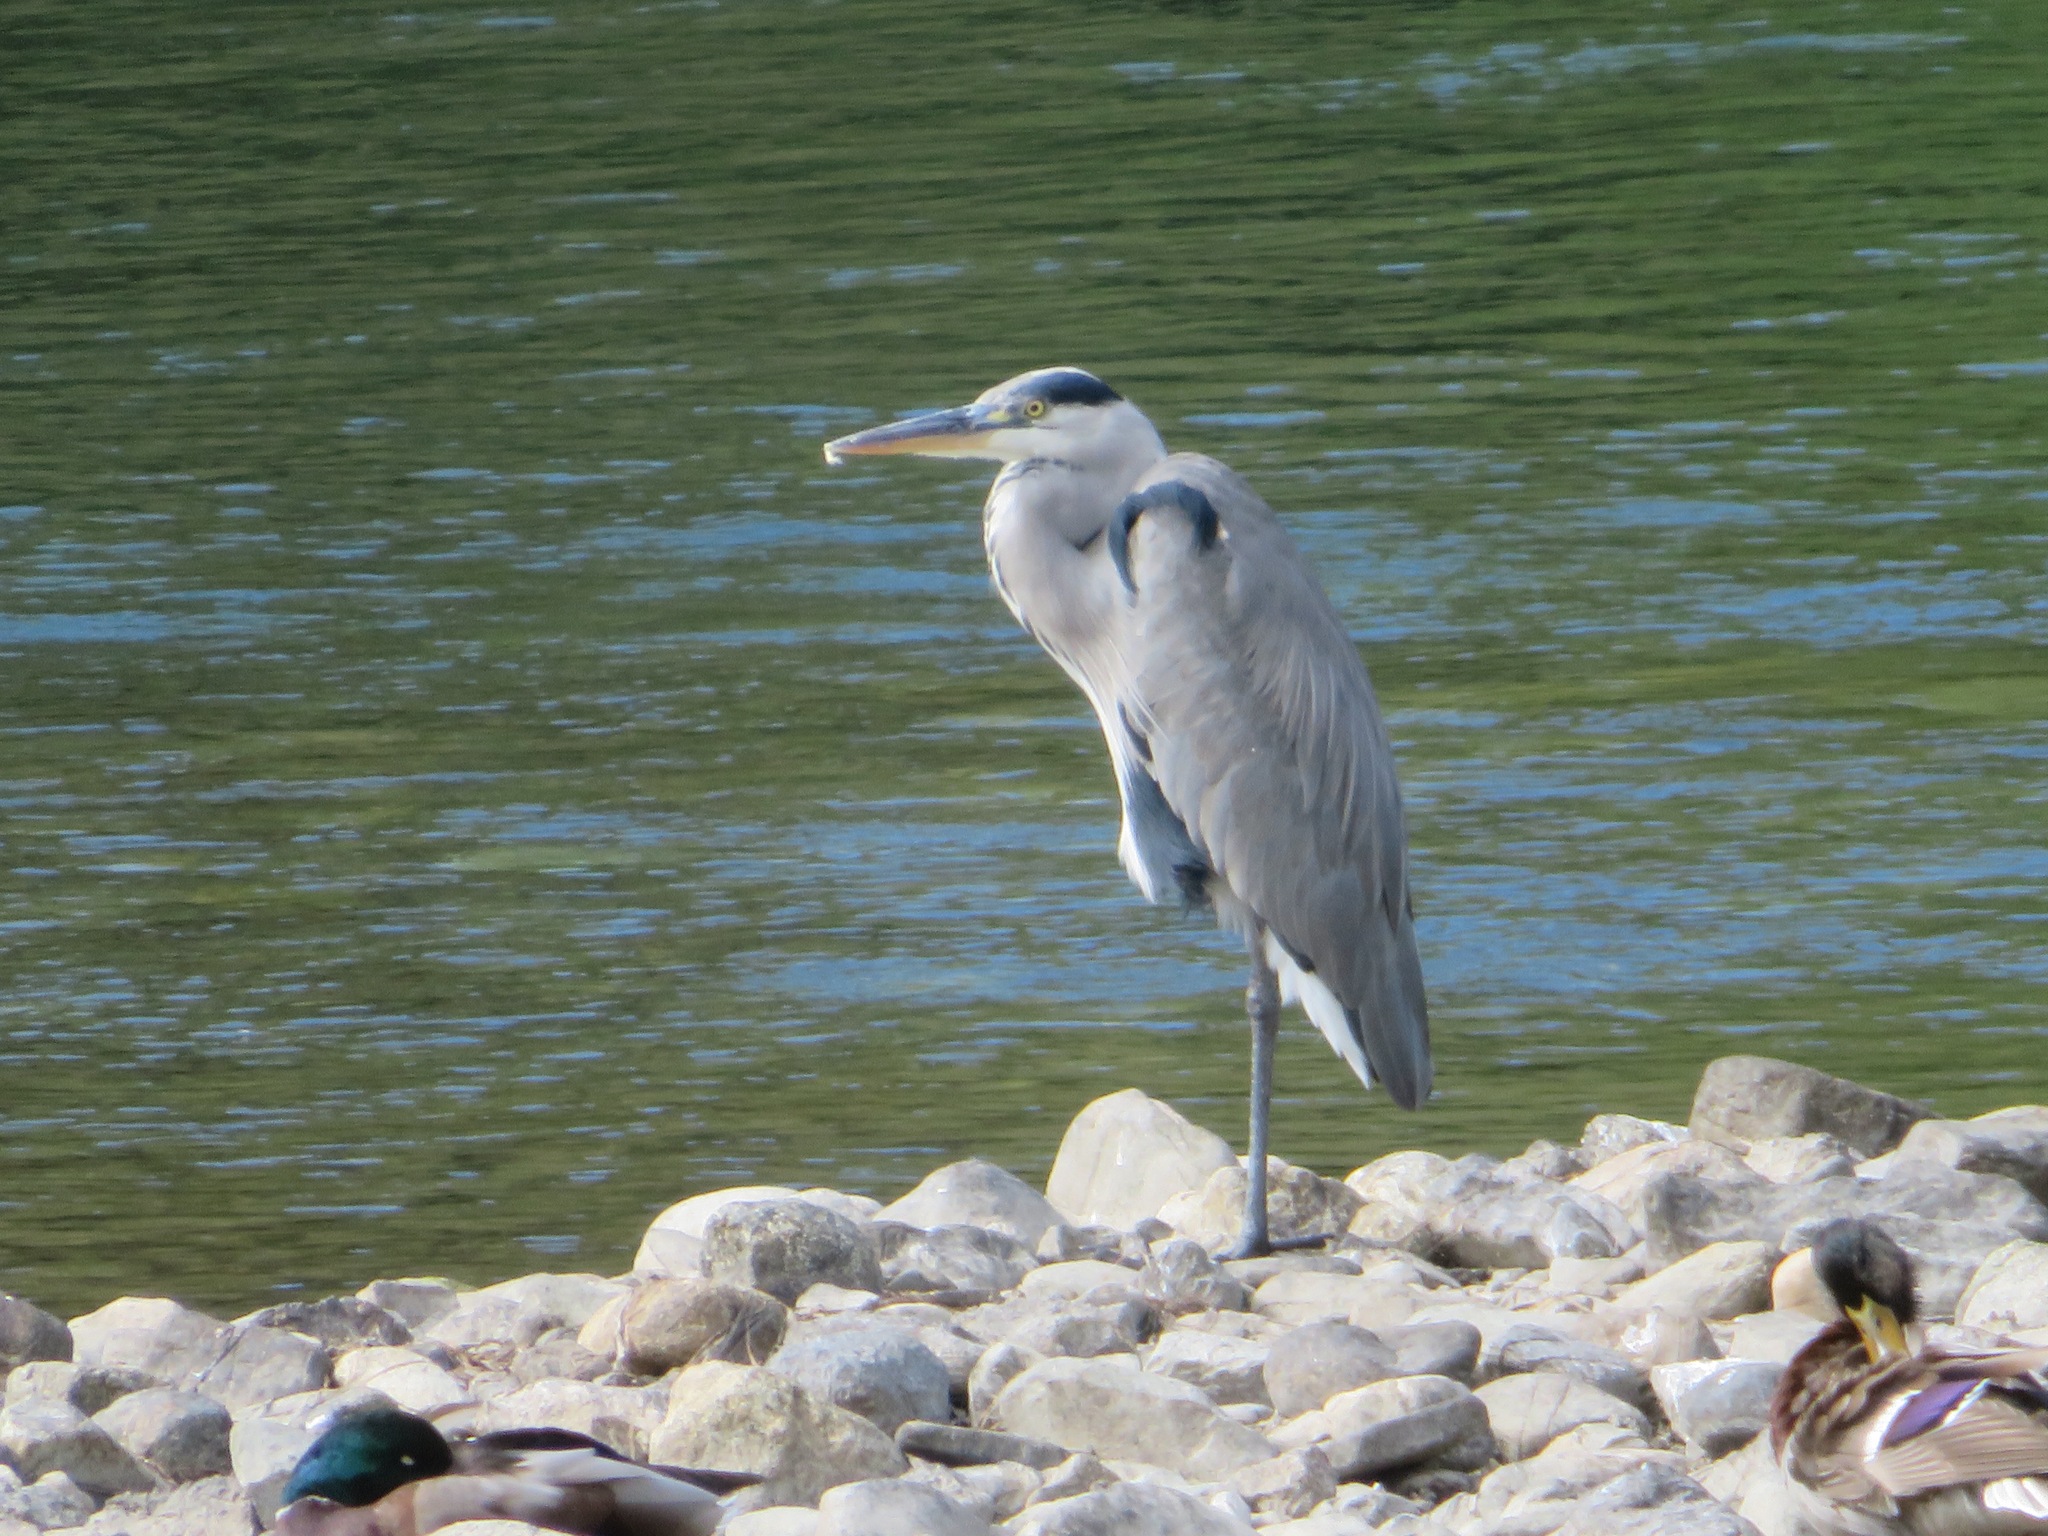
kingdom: Animalia
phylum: Chordata
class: Aves
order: Pelecaniformes
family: Ardeidae
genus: Ardea
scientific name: Ardea cinerea
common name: Grey heron
